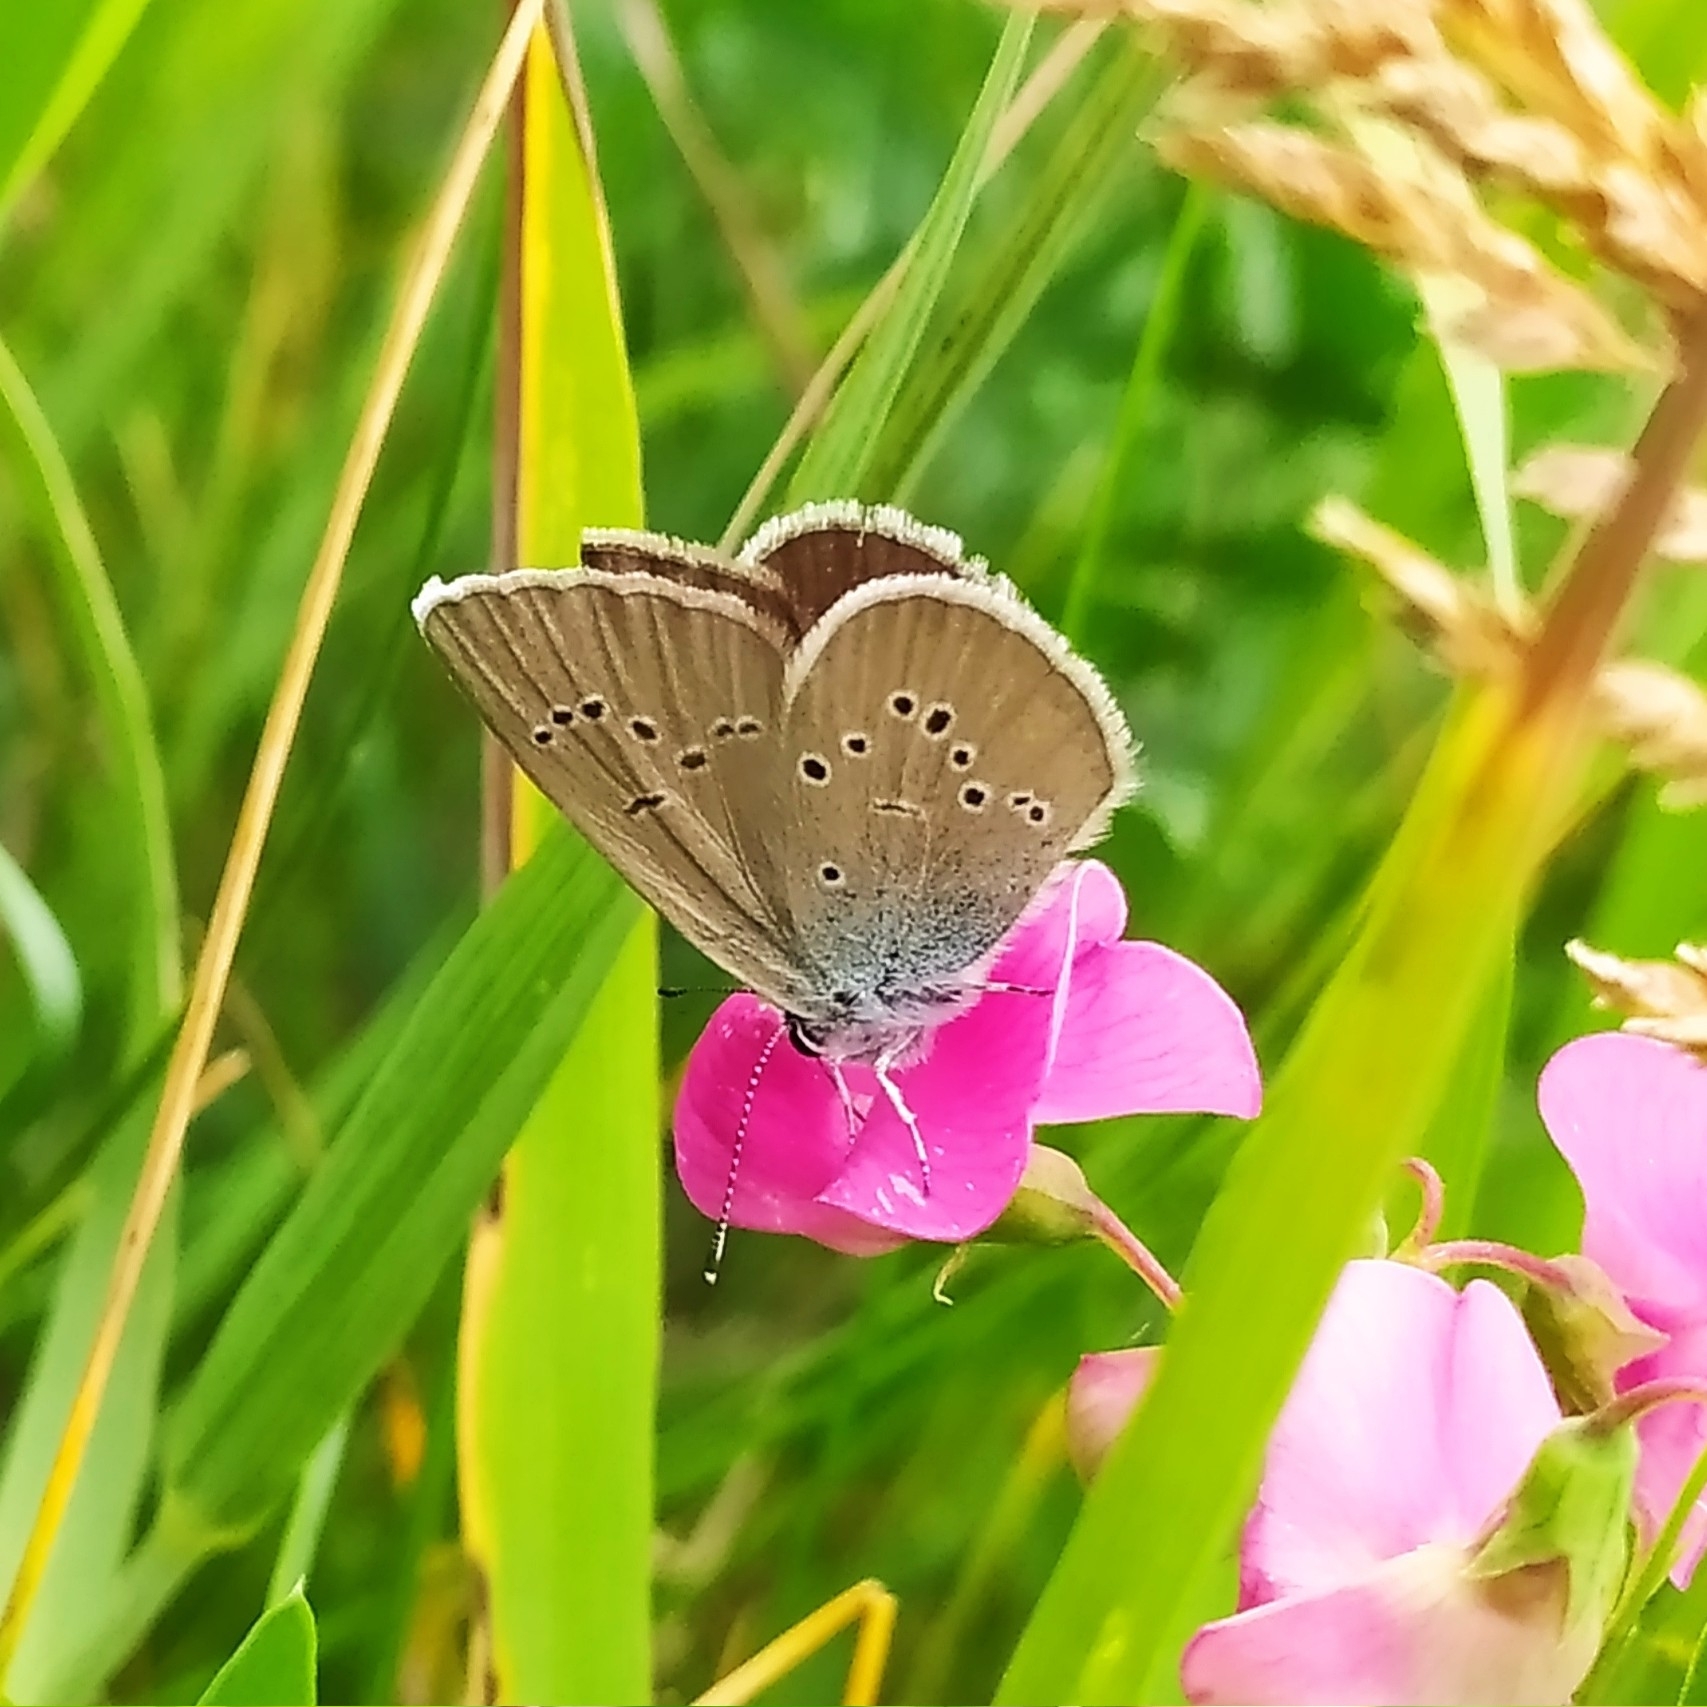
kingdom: Animalia
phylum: Arthropoda
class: Insecta
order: Lepidoptera
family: Lycaenidae
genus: Cyaniris
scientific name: Cyaniris semiargus
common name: Mazarine blue
